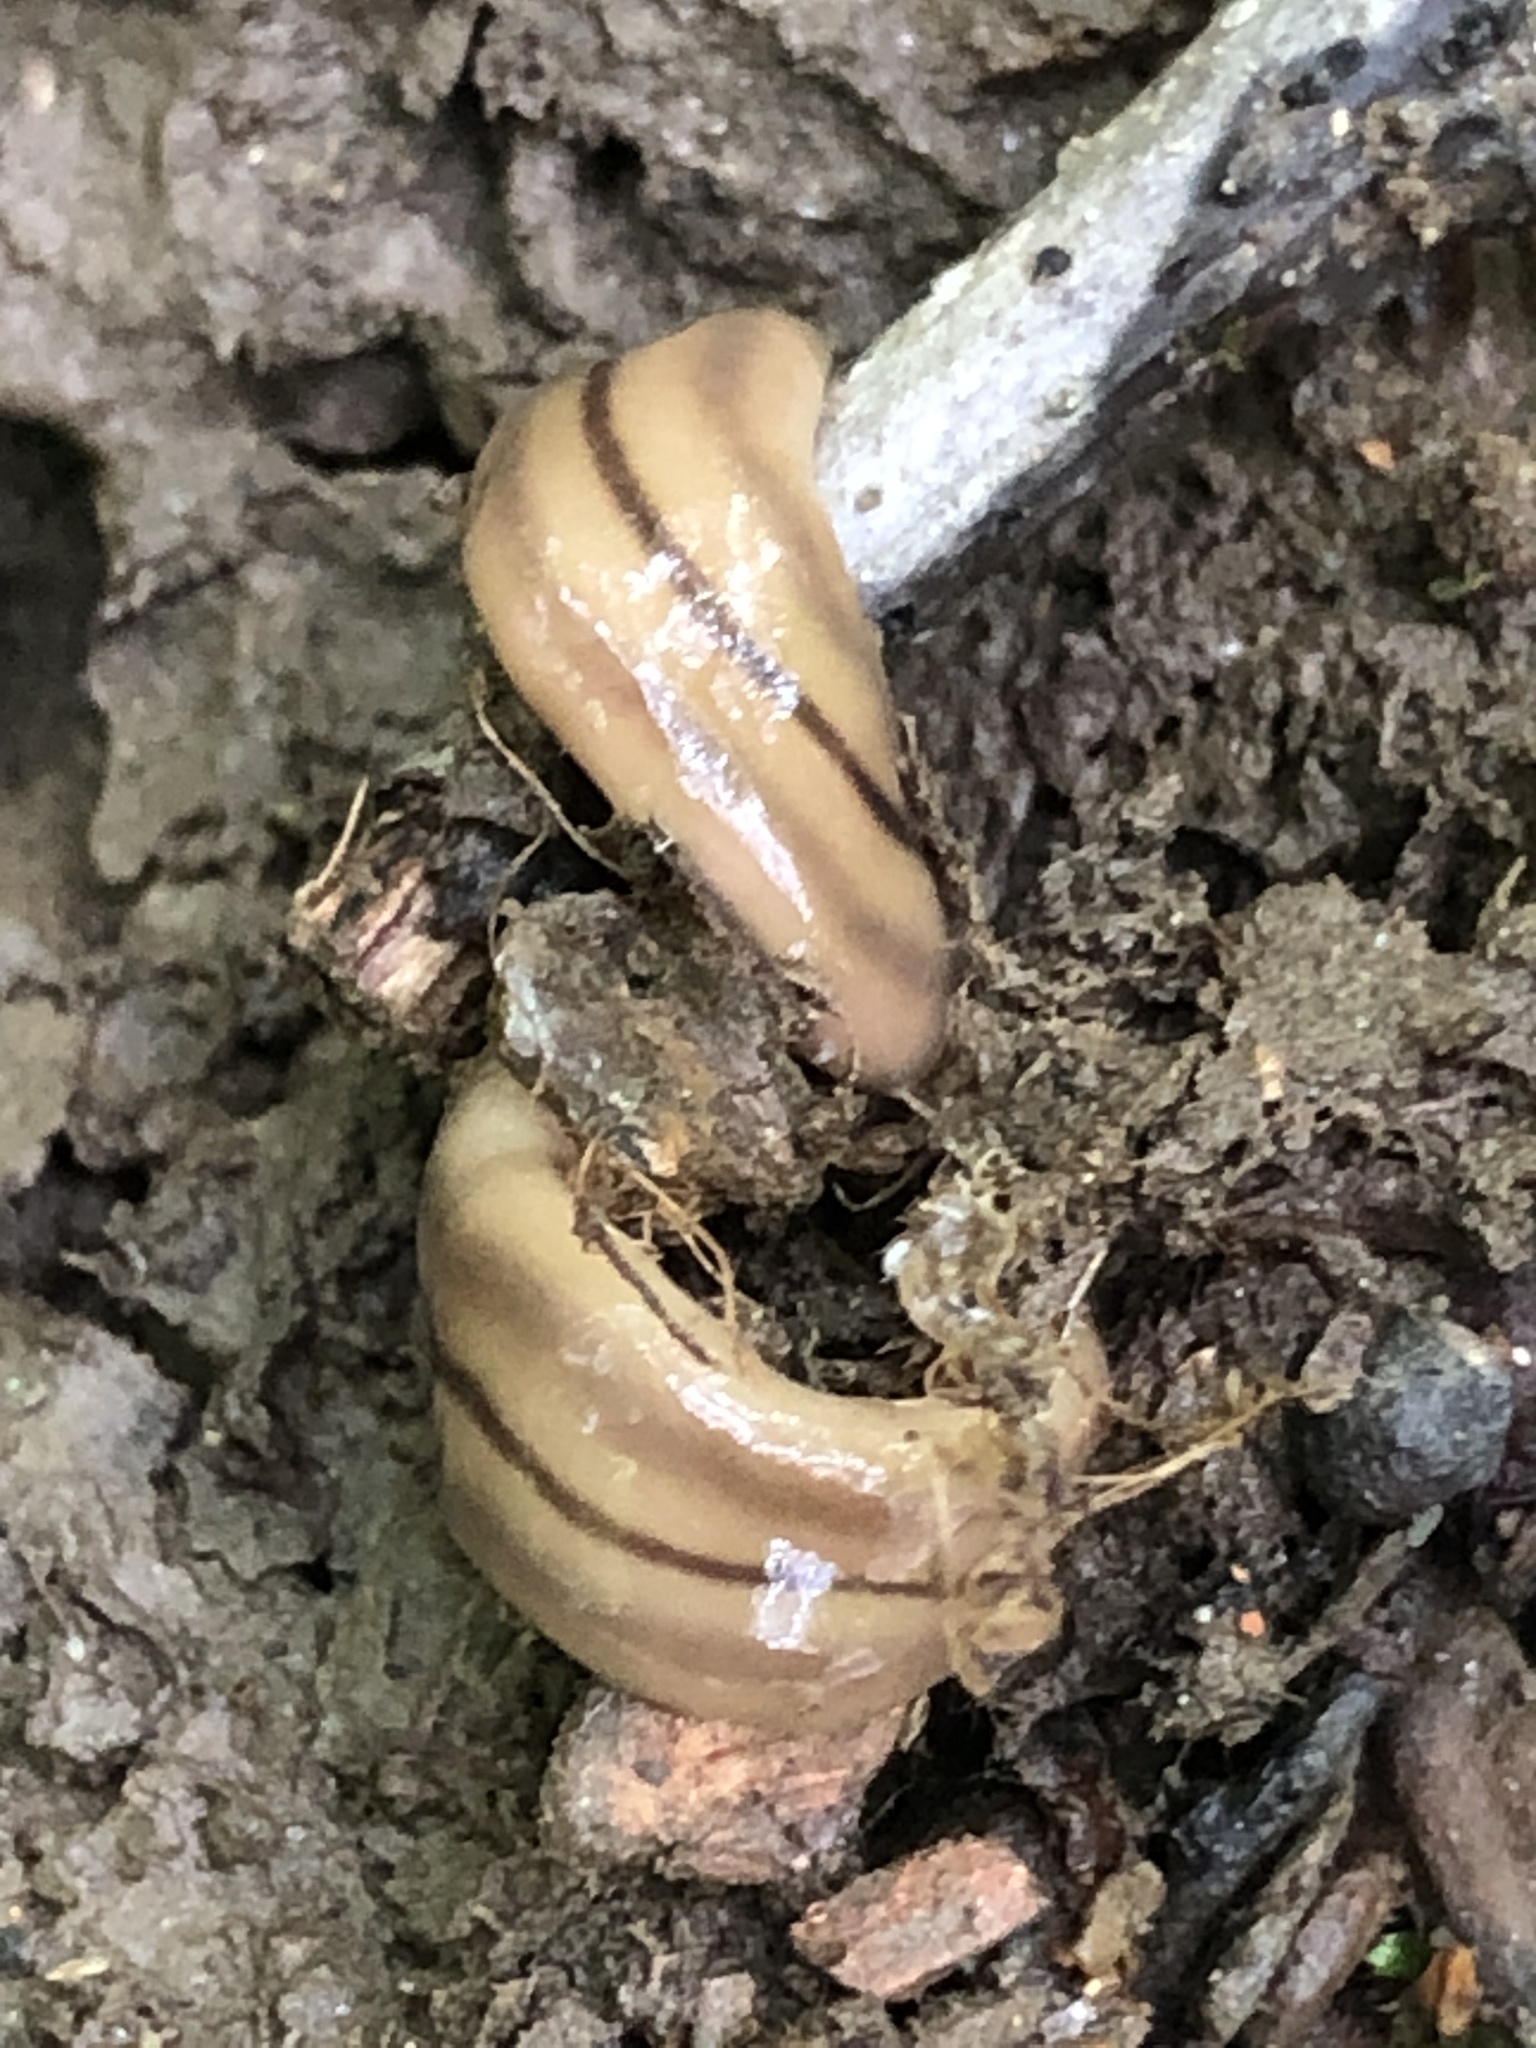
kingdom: Animalia
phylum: Platyhelminthes
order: Tricladida
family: Geoplanidae
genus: Bipalium
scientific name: Bipalium pennsylvanicum
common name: Three-lined land planarian
